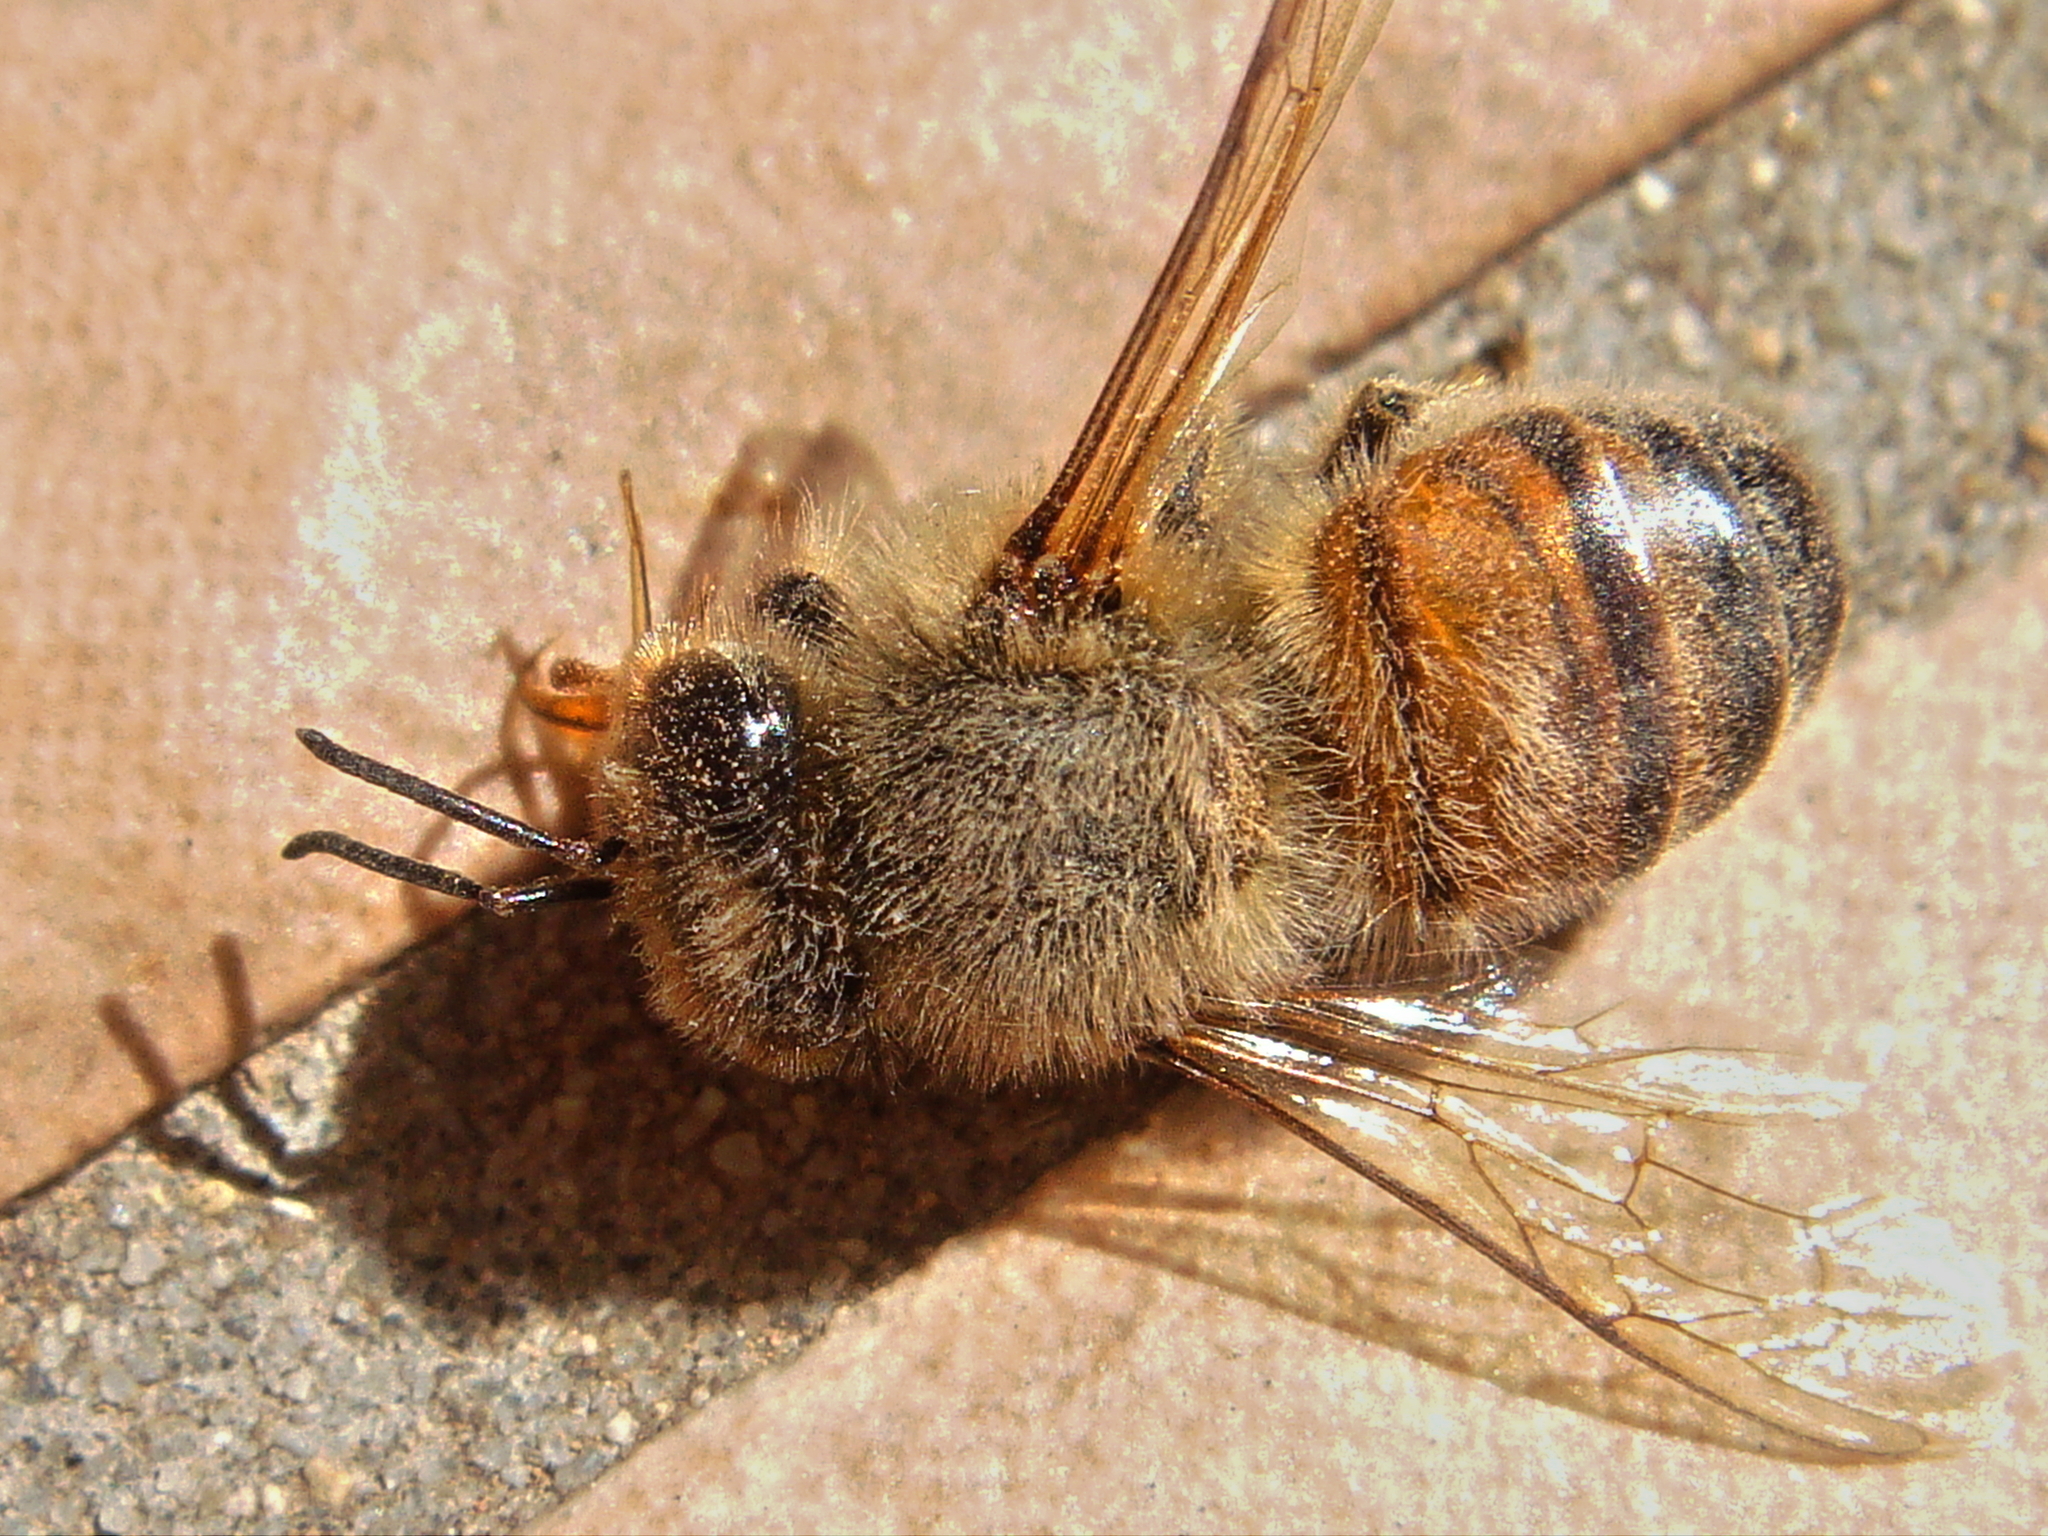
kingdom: Animalia
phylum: Arthropoda
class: Insecta
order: Hymenoptera
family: Apidae
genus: Apis
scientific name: Apis mellifera
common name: Honey bee
